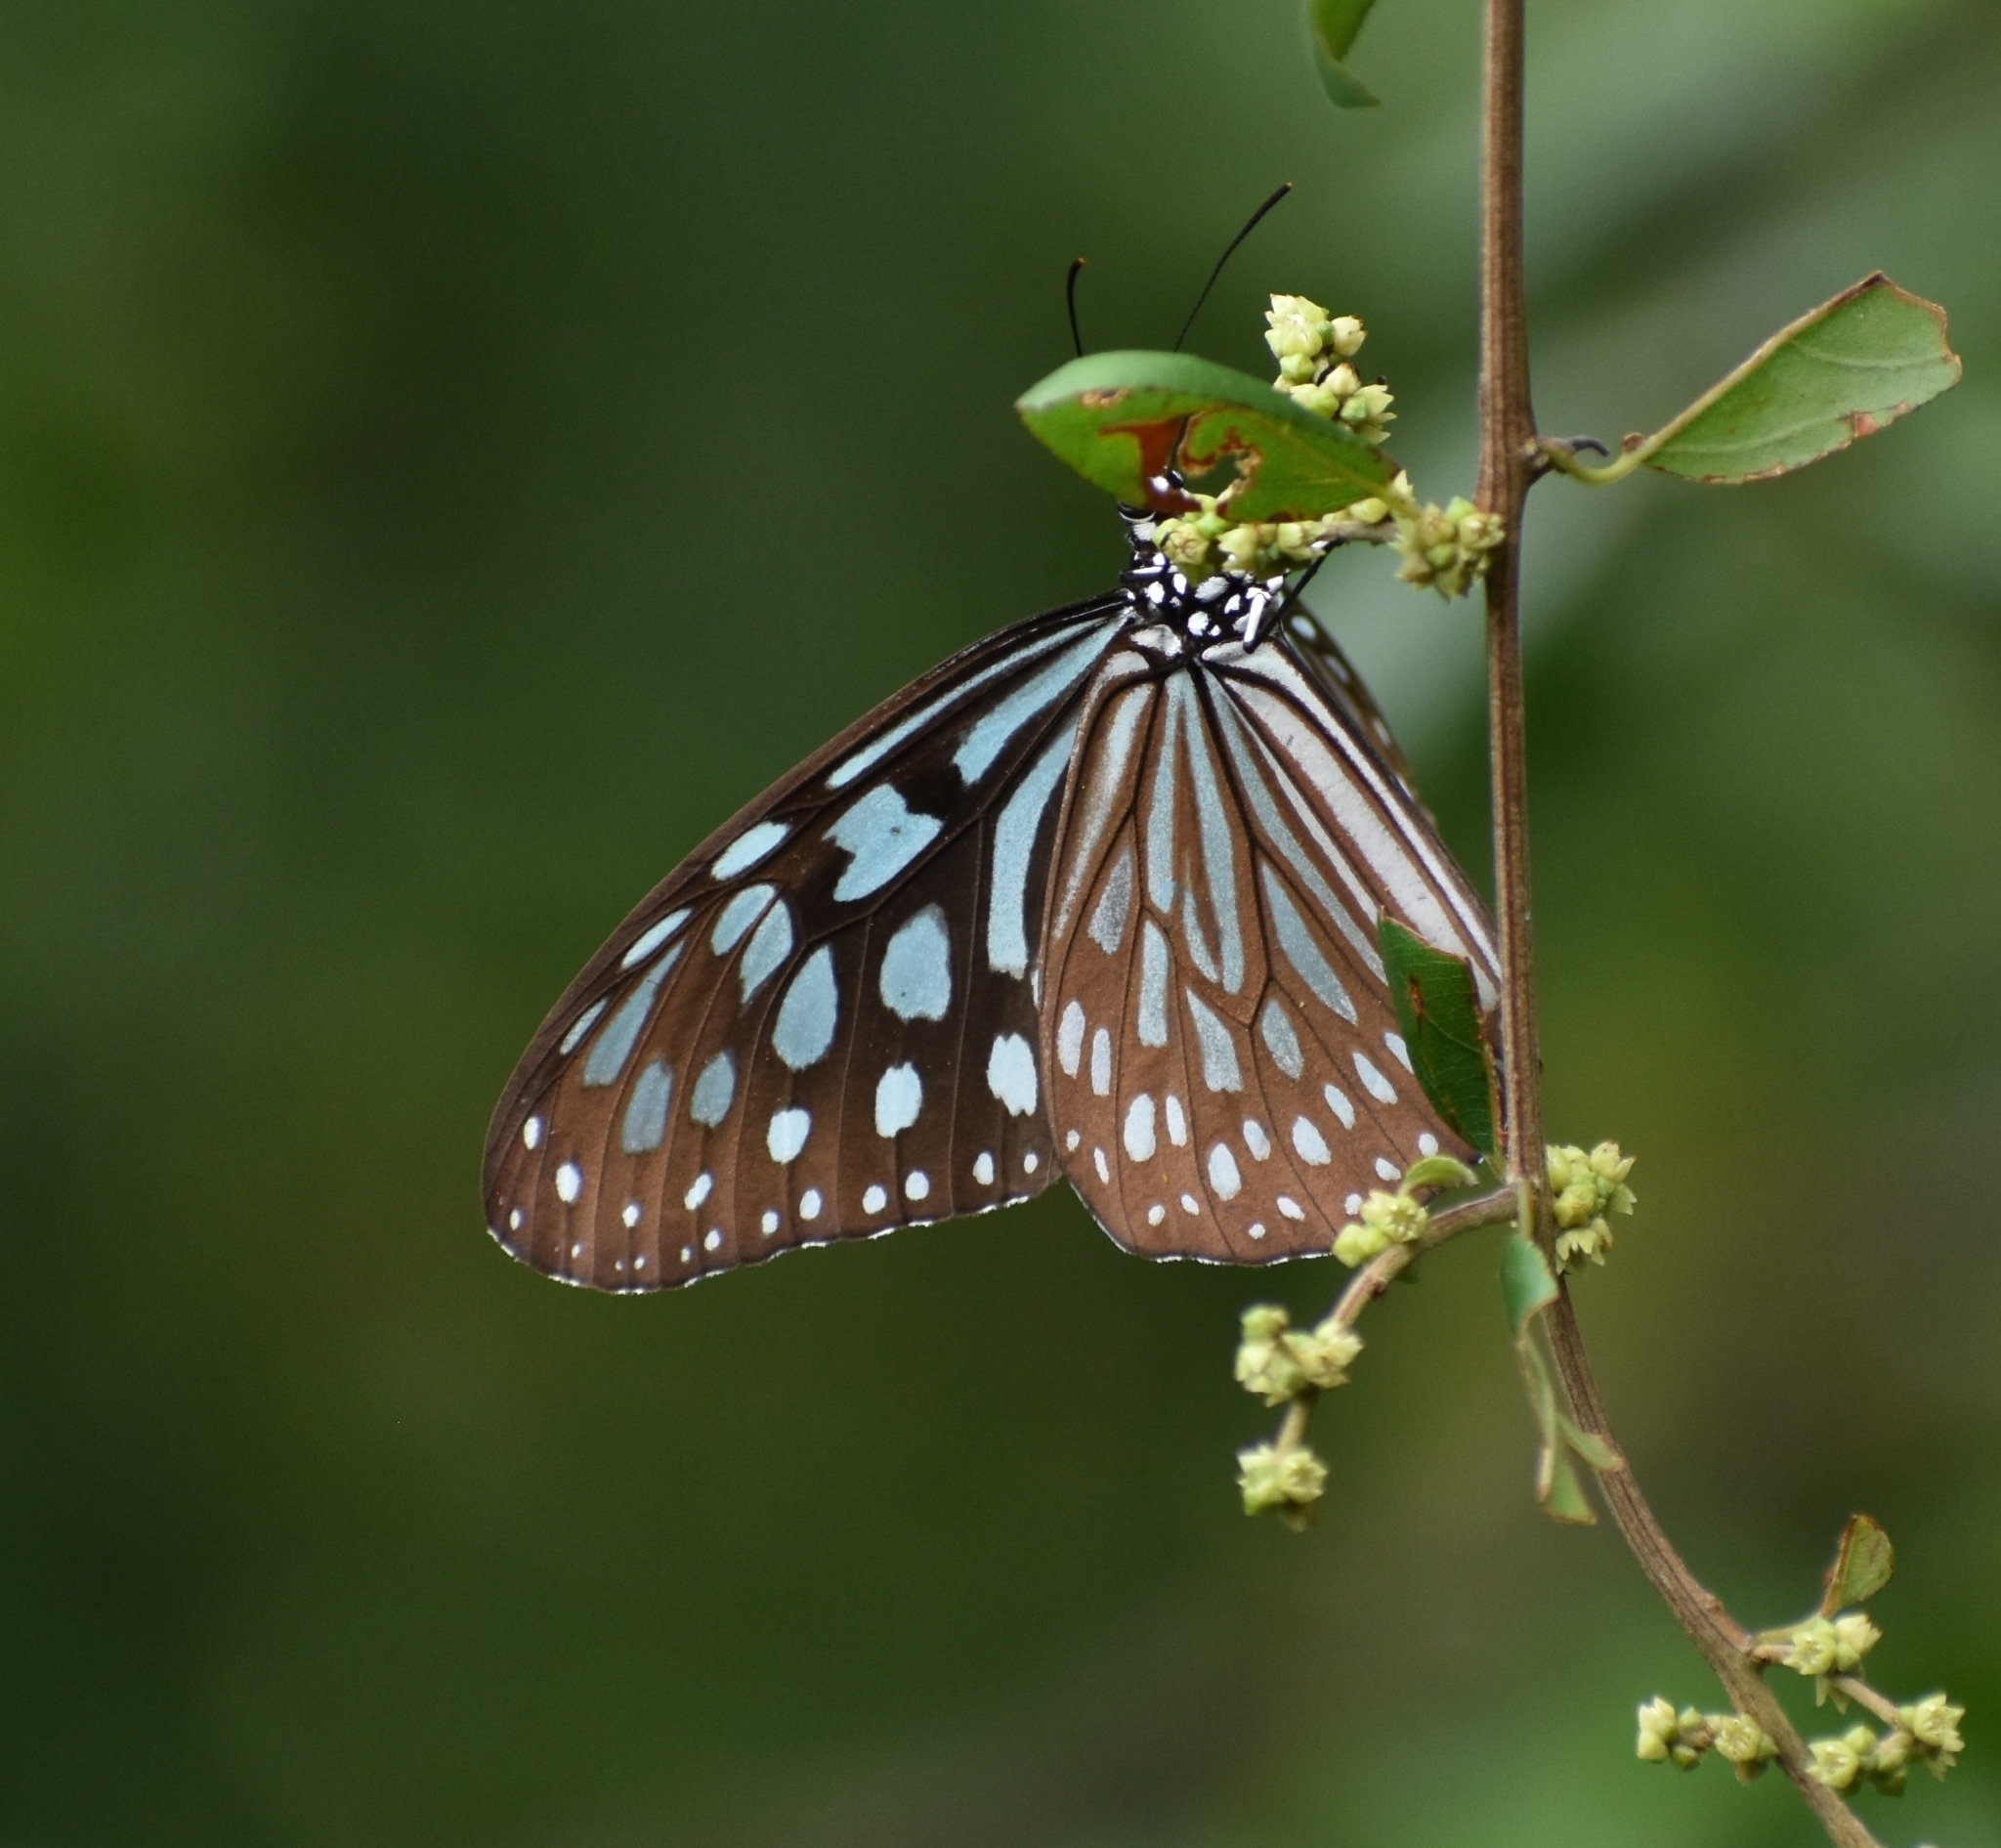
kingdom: Animalia
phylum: Arthropoda
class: Insecta
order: Lepidoptera
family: Nymphalidae
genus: Ideopsis
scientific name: Ideopsis similis
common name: Ceylon blue glassy tiger
